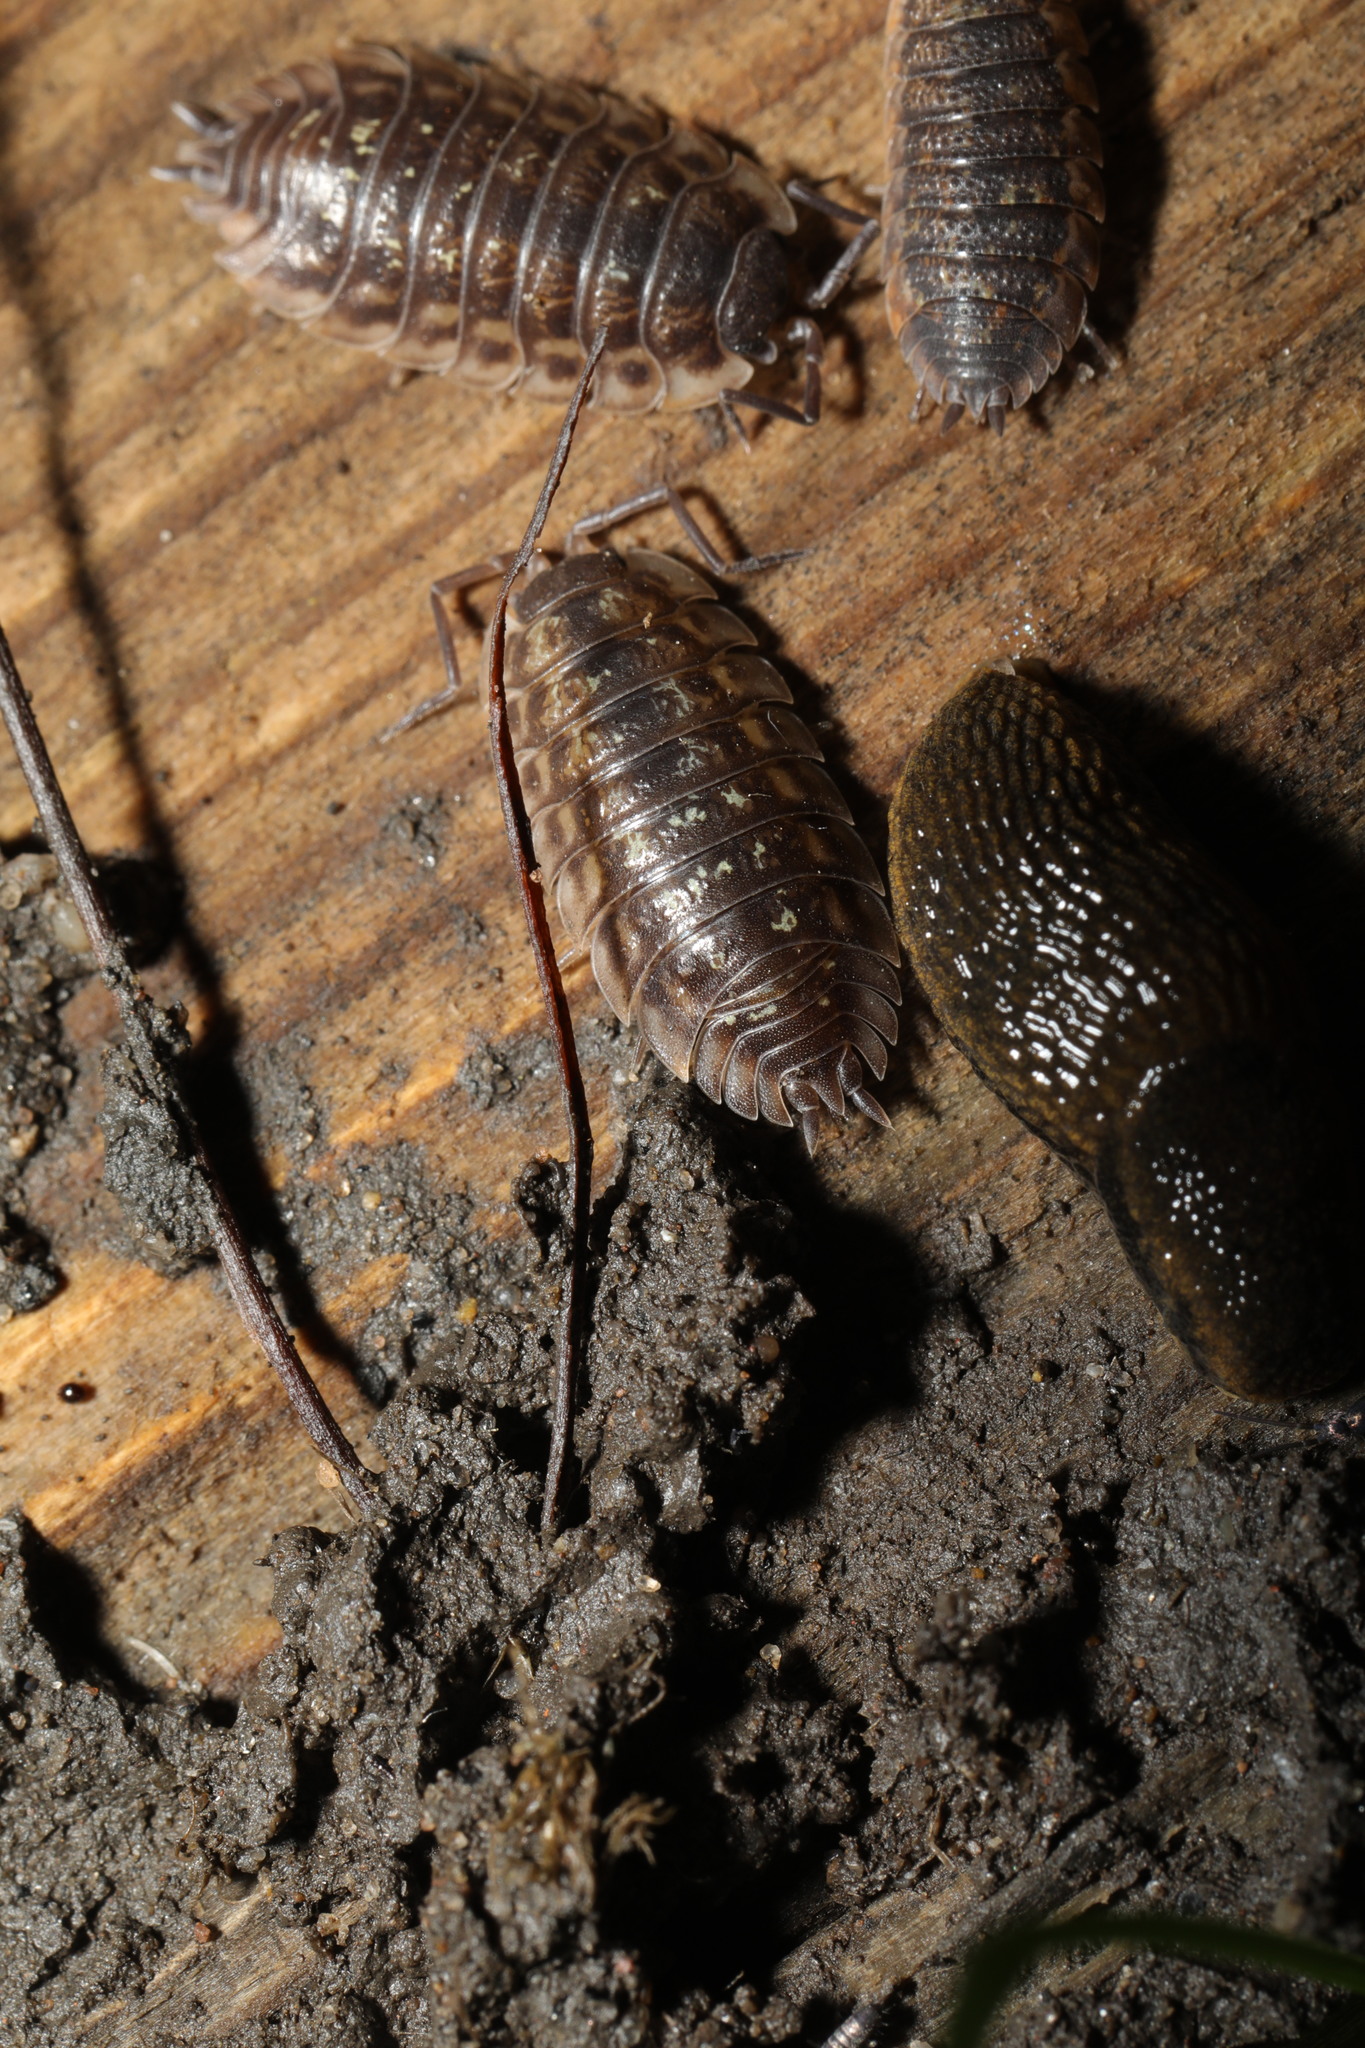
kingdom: Animalia
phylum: Arthropoda
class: Malacostraca
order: Isopoda
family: Oniscidae
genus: Oniscus
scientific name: Oniscus asellus
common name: Common shiny woodlouse
